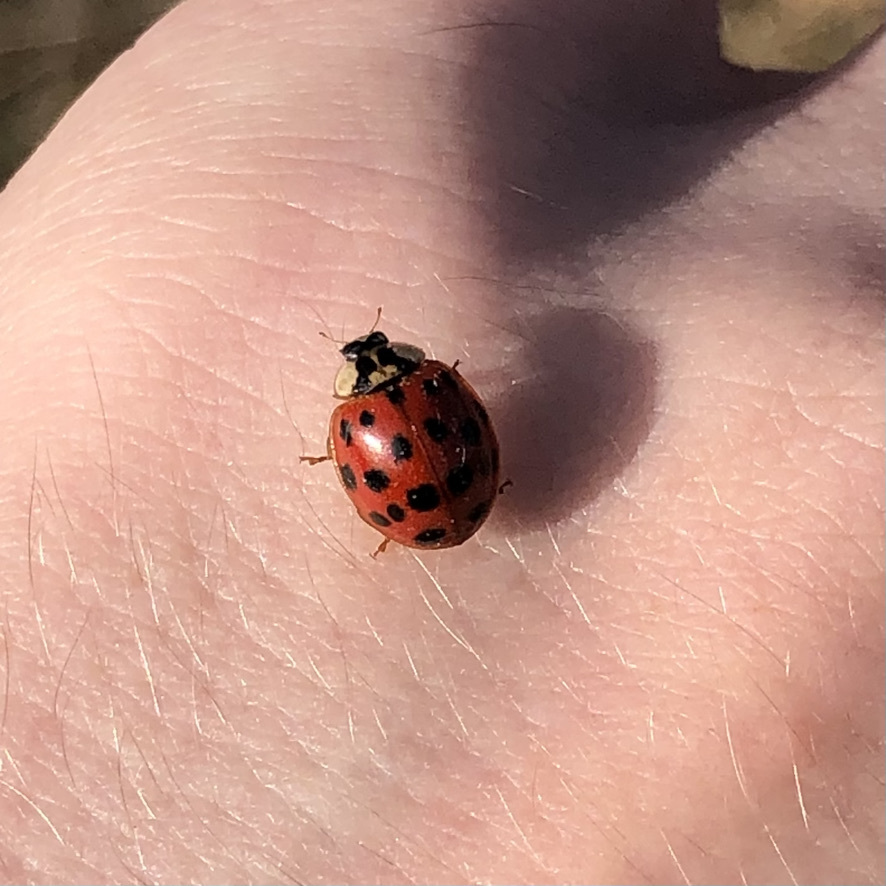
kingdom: Animalia
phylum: Arthropoda
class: Insecta
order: Coleoptera
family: Coccinellidae
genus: Harmonia
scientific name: Harmonia axyridis
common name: Harlequin ladybird
